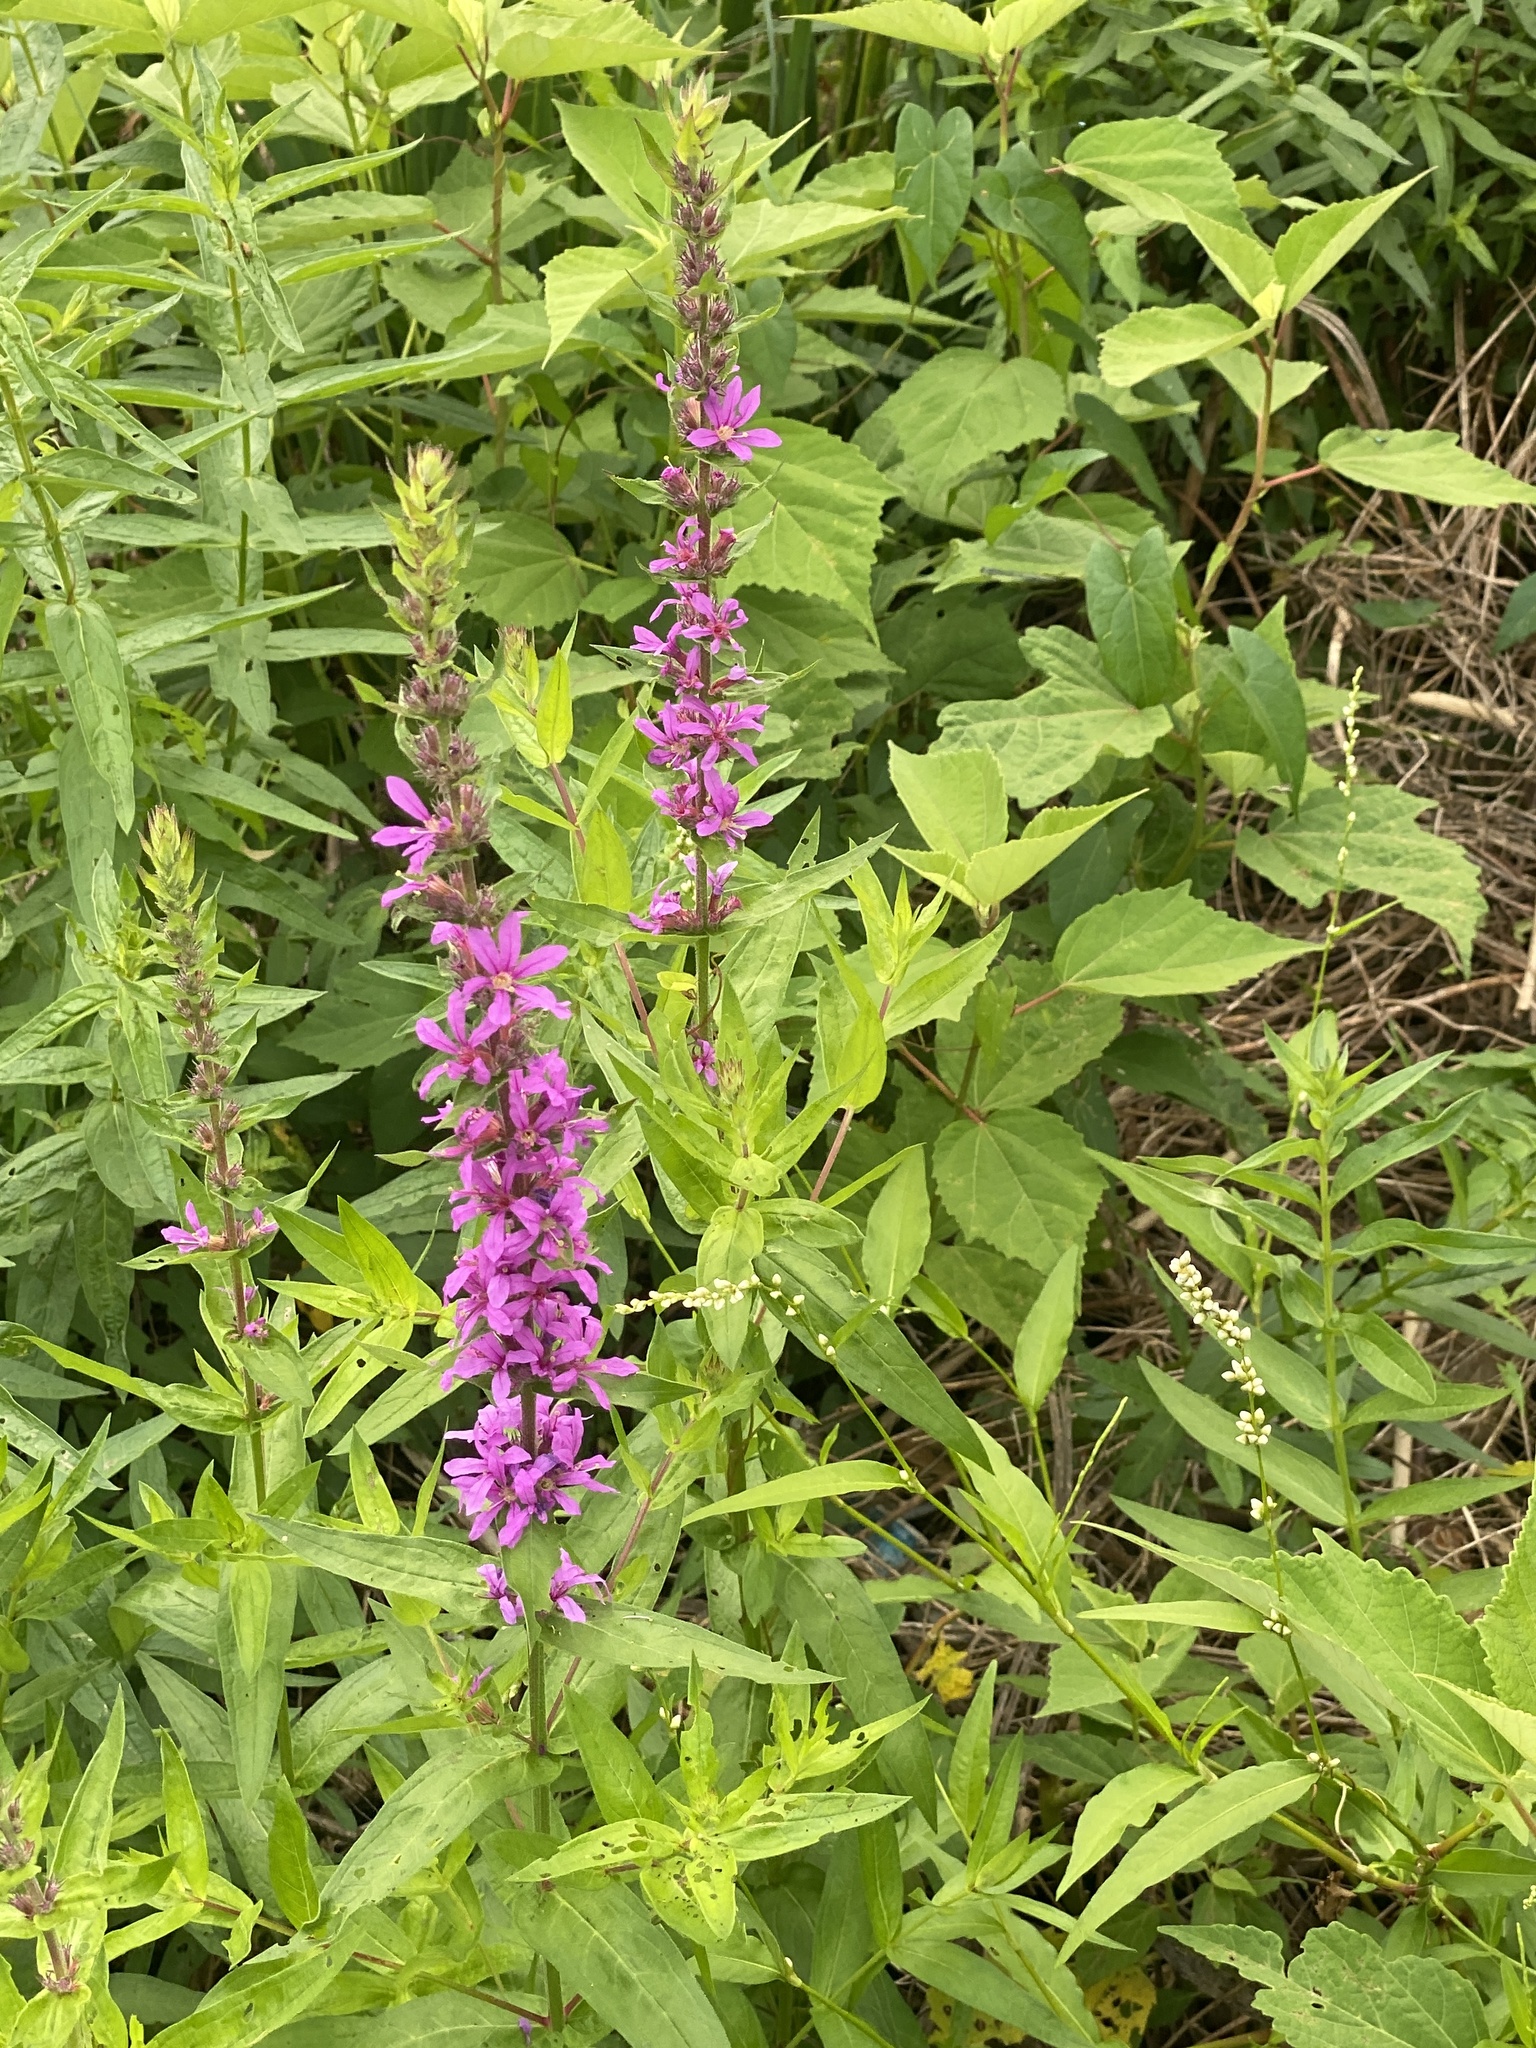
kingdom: Plantae
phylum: Tracheophyta
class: Magnoliopsida
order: Myrtales
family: Lythraceae
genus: Lythrum
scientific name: Lythrum salicaria
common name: Purple loosestrife
